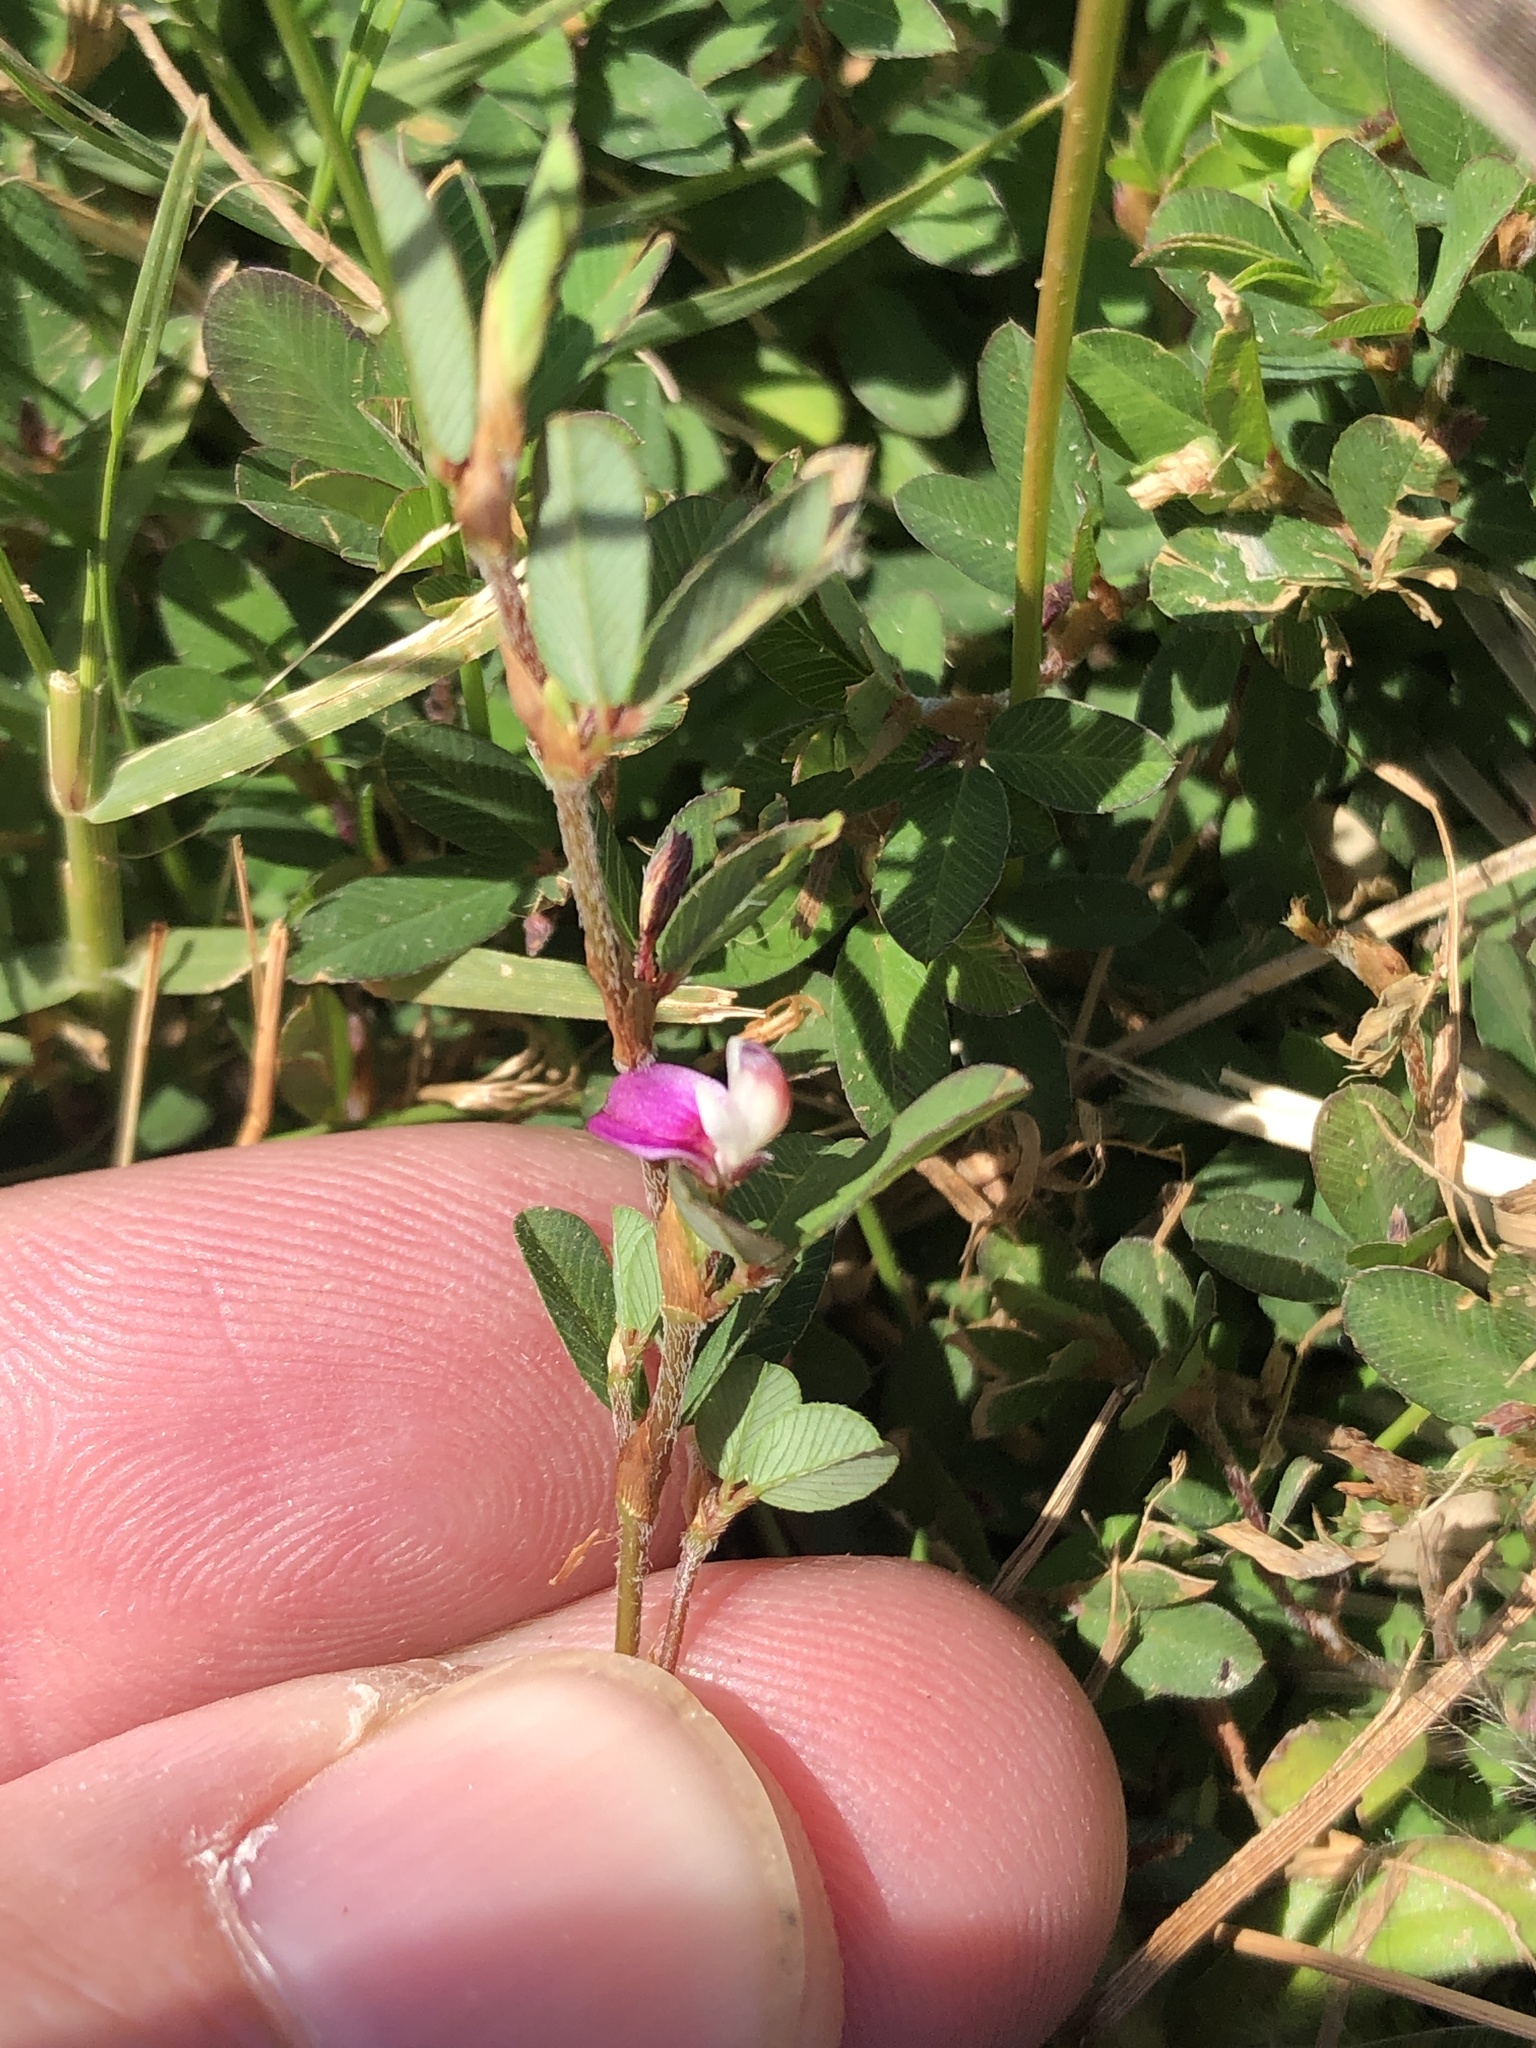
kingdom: Plantae
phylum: Tracheophyta
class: Magnoliopsida
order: Fabales
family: Fabaceae
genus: Kummerowia
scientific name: Kummerowia striata
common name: Japanese clover
